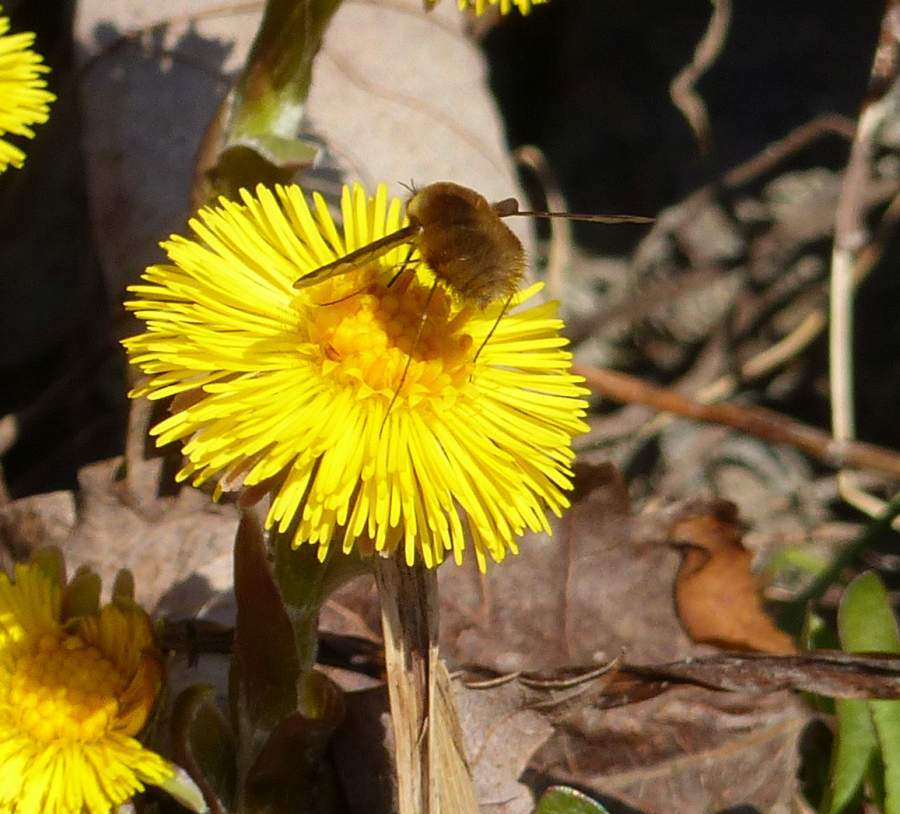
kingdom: Animalia
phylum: Arthropoda
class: Insecta
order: Diptera
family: Bombyliidae
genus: Bombylius
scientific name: Bombylius major
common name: Bee fly
